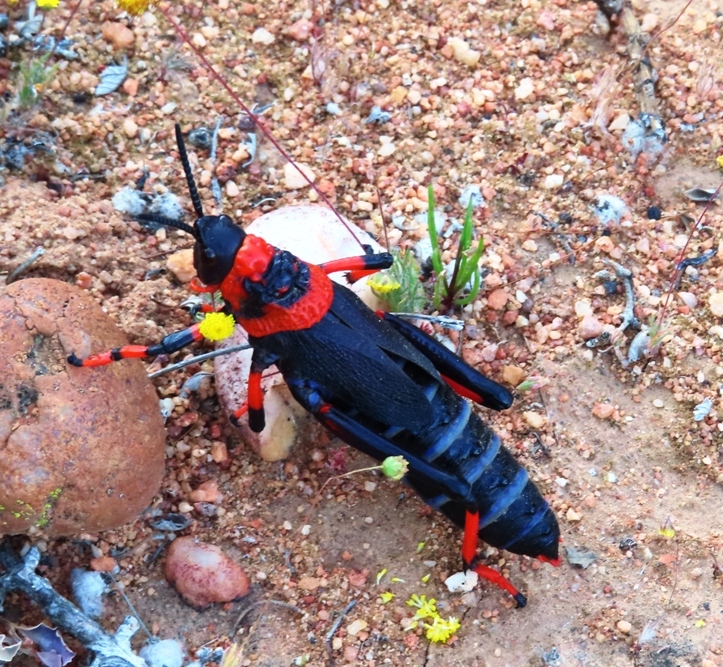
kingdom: Animalia
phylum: Arthropoda
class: Insecta
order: Orthoptera
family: Pyrgomorphidae
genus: Dictyophorus
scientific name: Dictyophorus spumans
